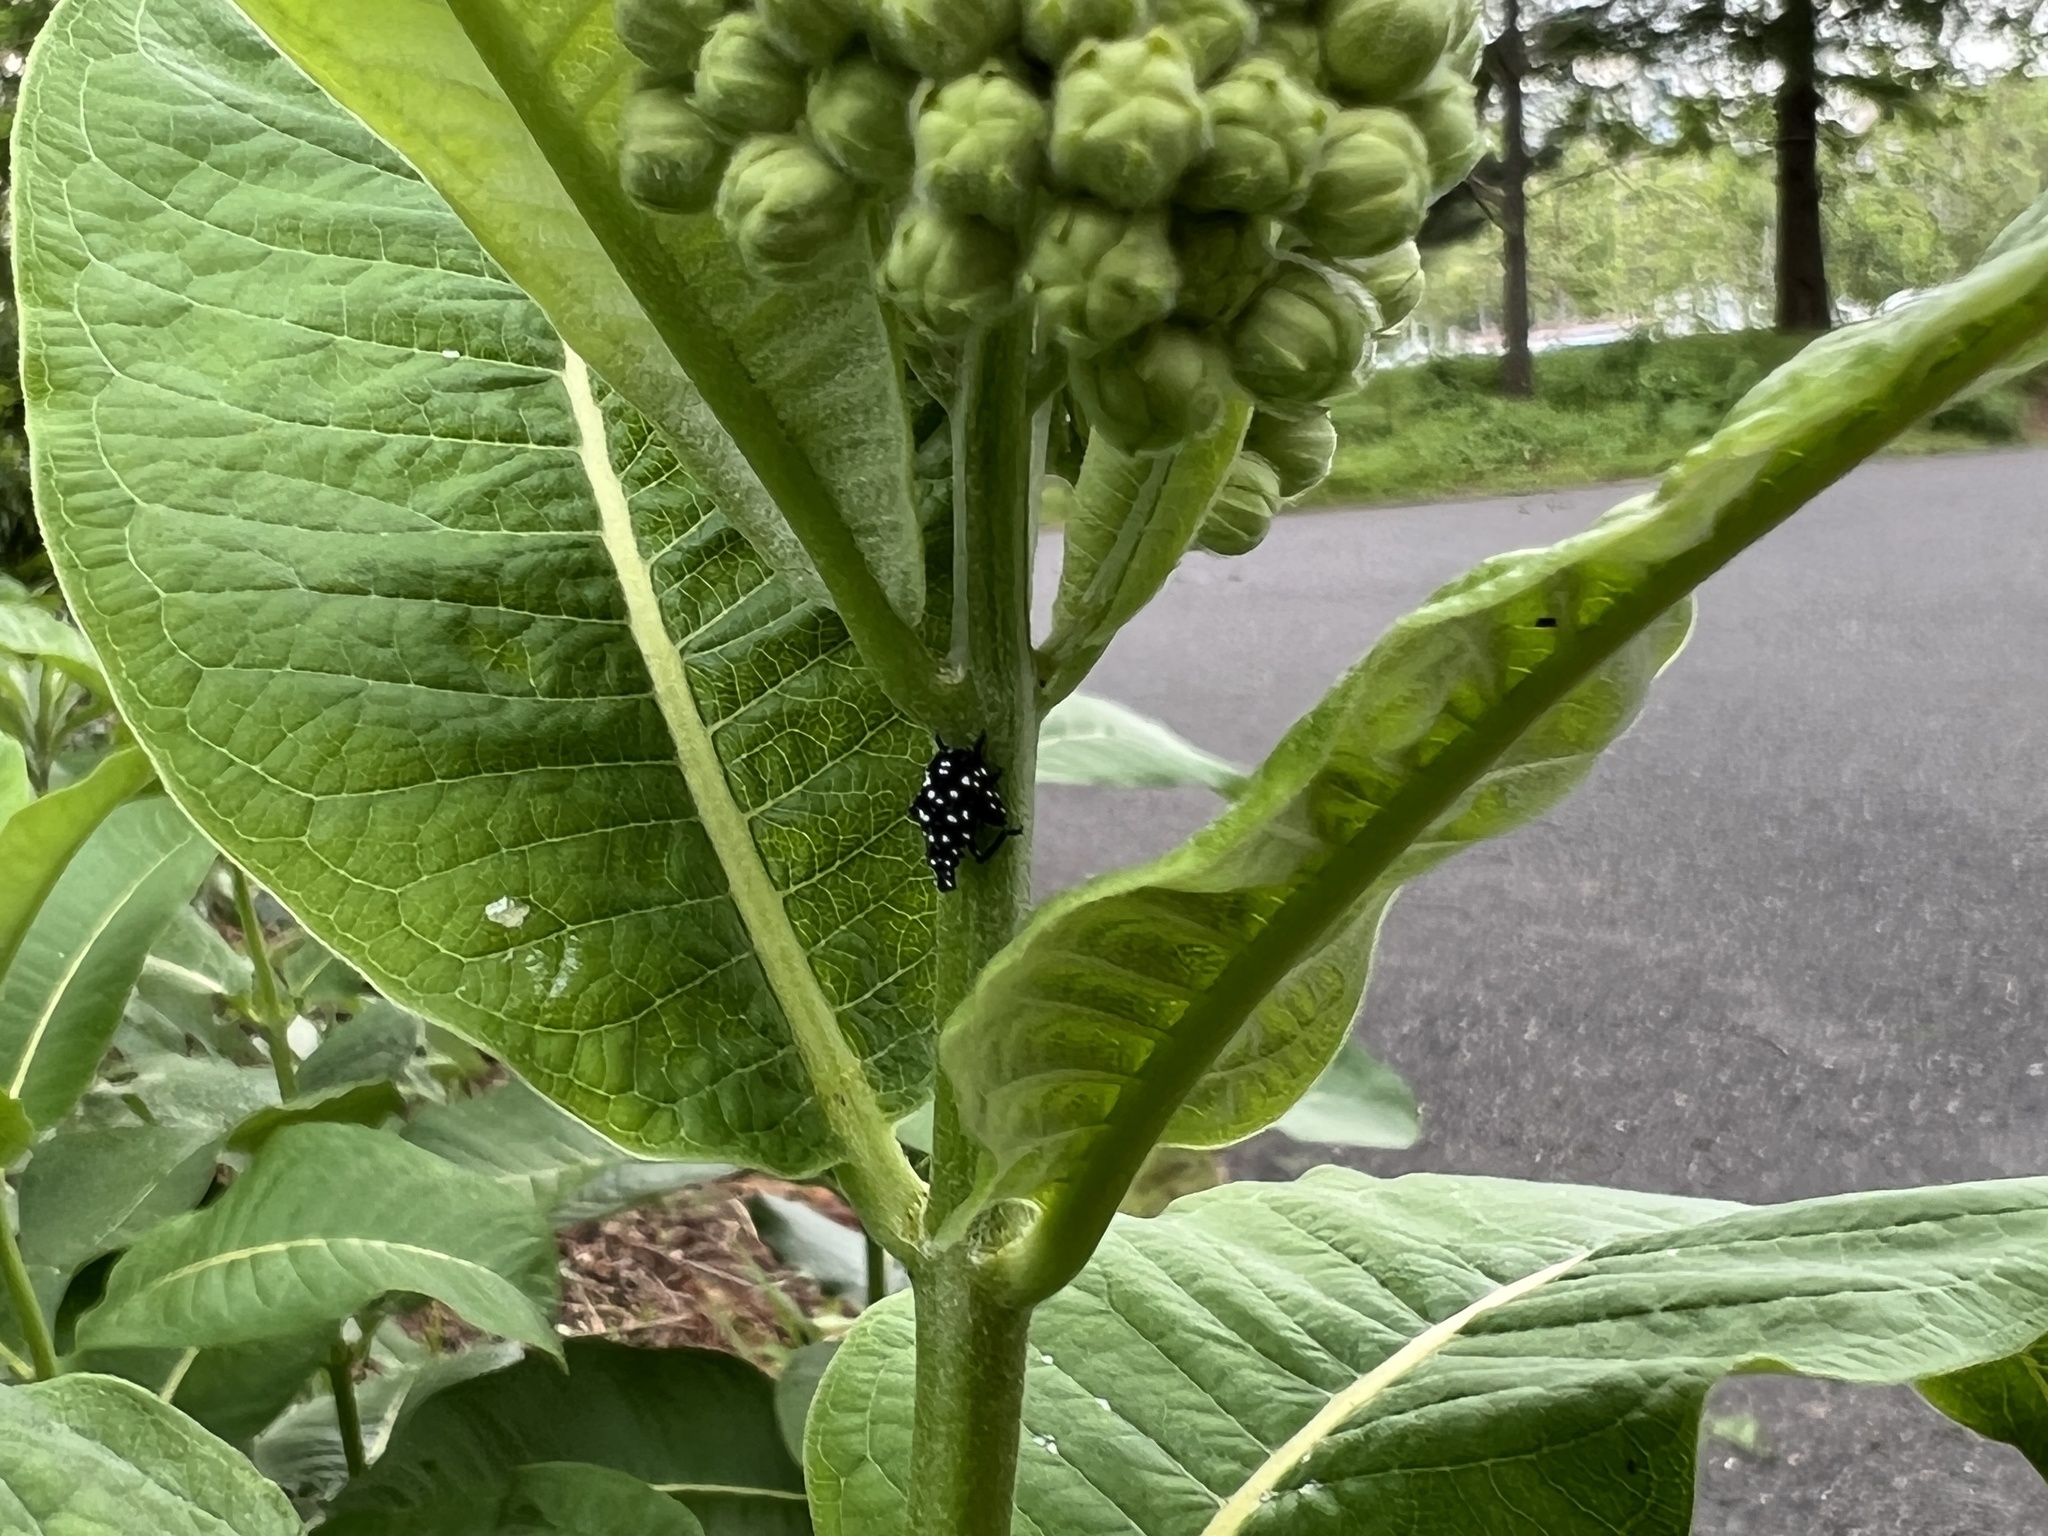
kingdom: Animalia
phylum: Arthropoda
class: Insecta
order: Hemiptera
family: Fulgoridae
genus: Lycorma
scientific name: Lycorma delicatula
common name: Spotted lanternfly
